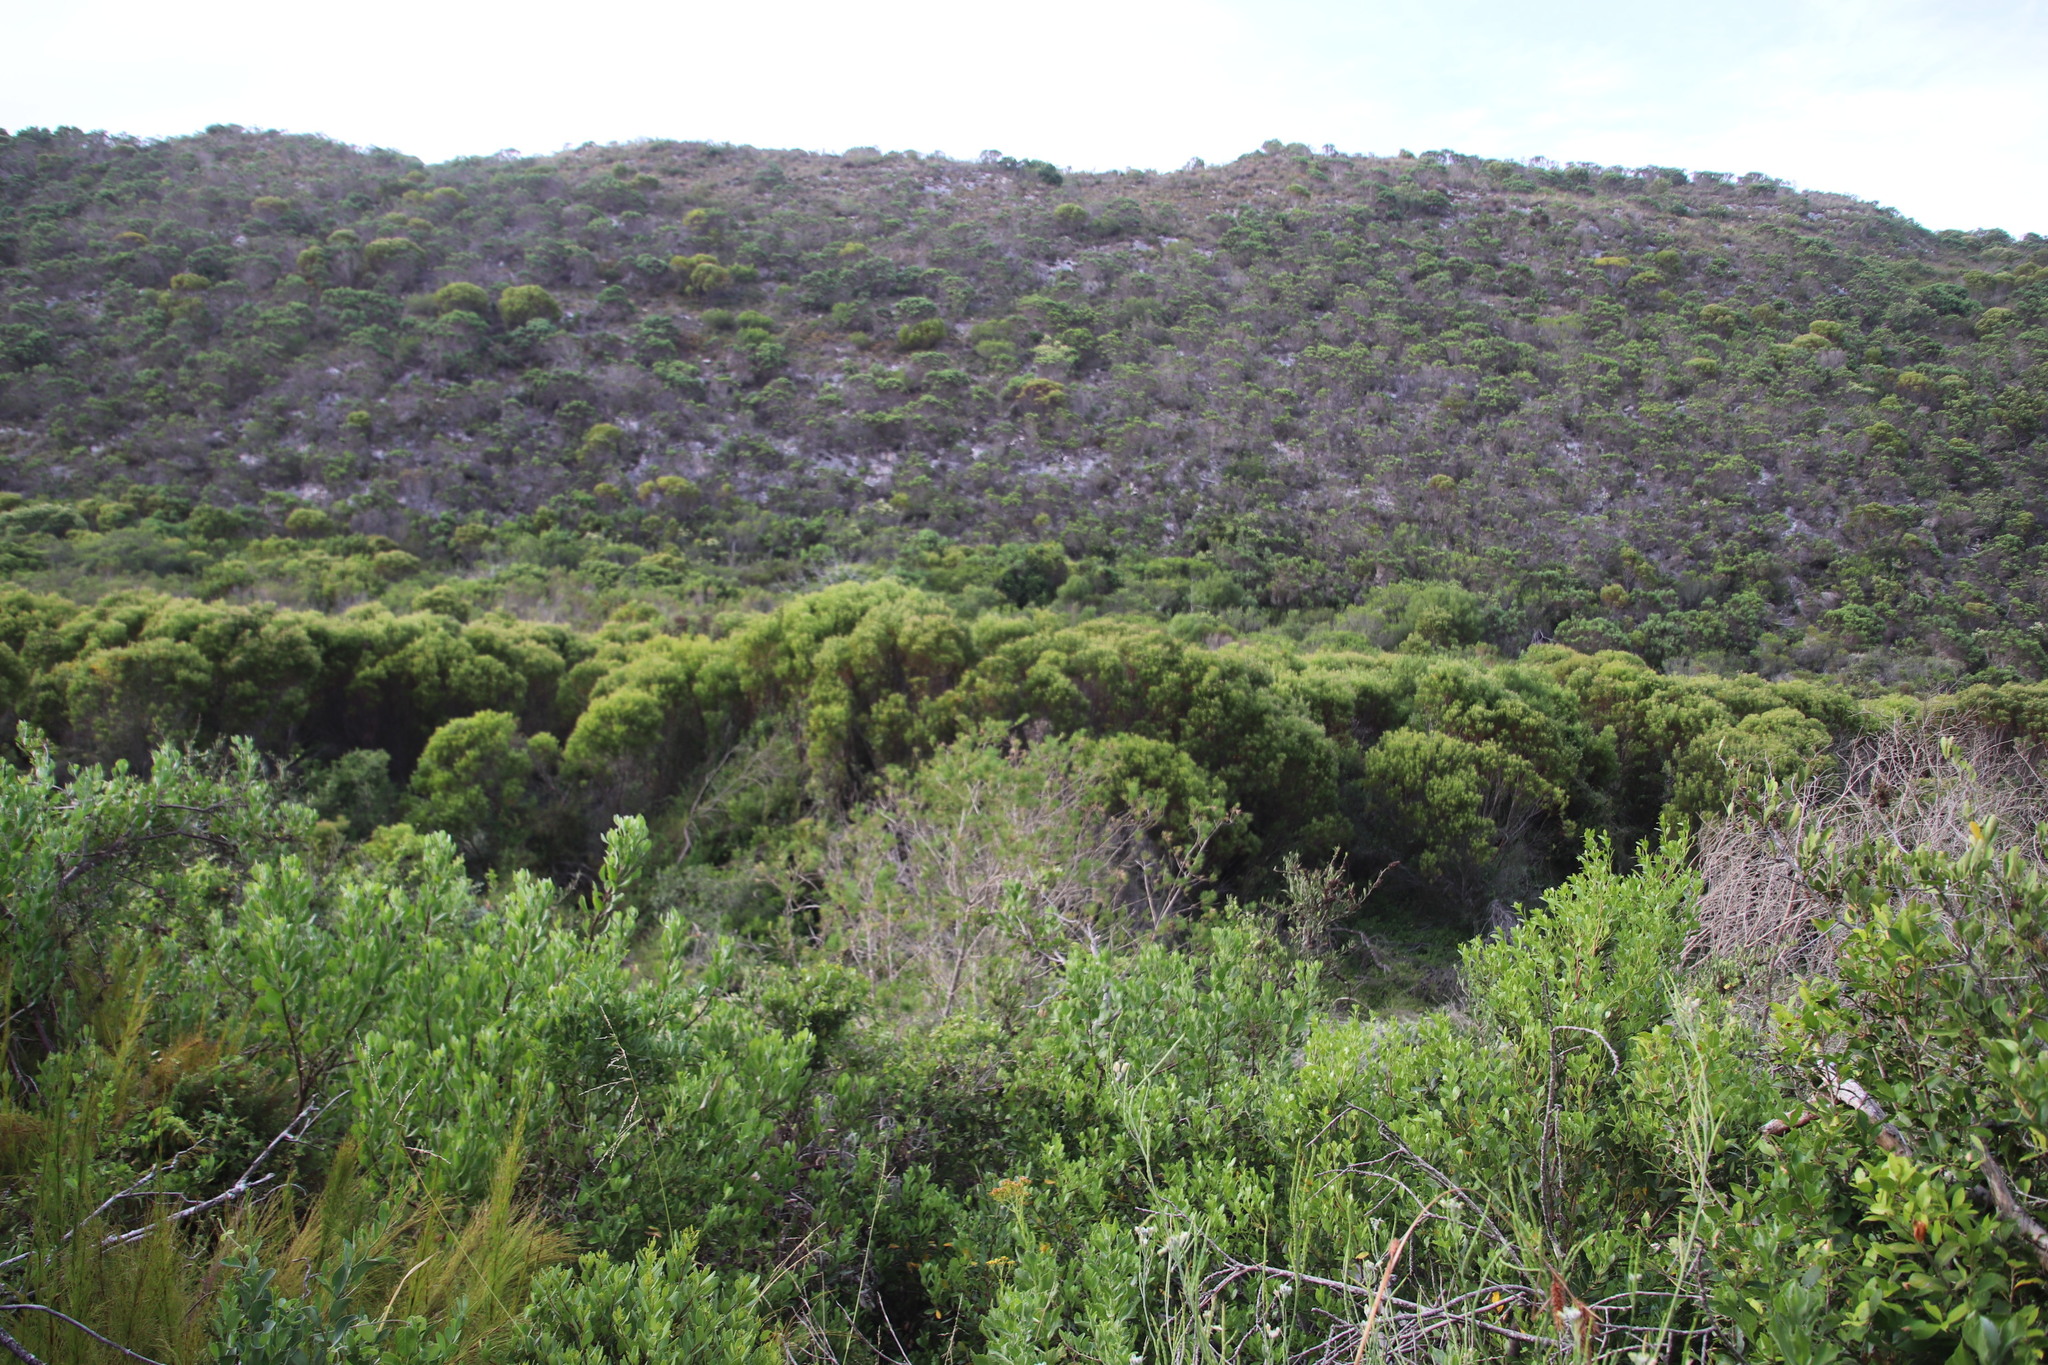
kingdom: Plantae
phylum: Tracheophyta
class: Magnoliopsida
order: Proteales
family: Proteaceae
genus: Leucadendron
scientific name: Leucadendron coniferum
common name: Dune conebush
